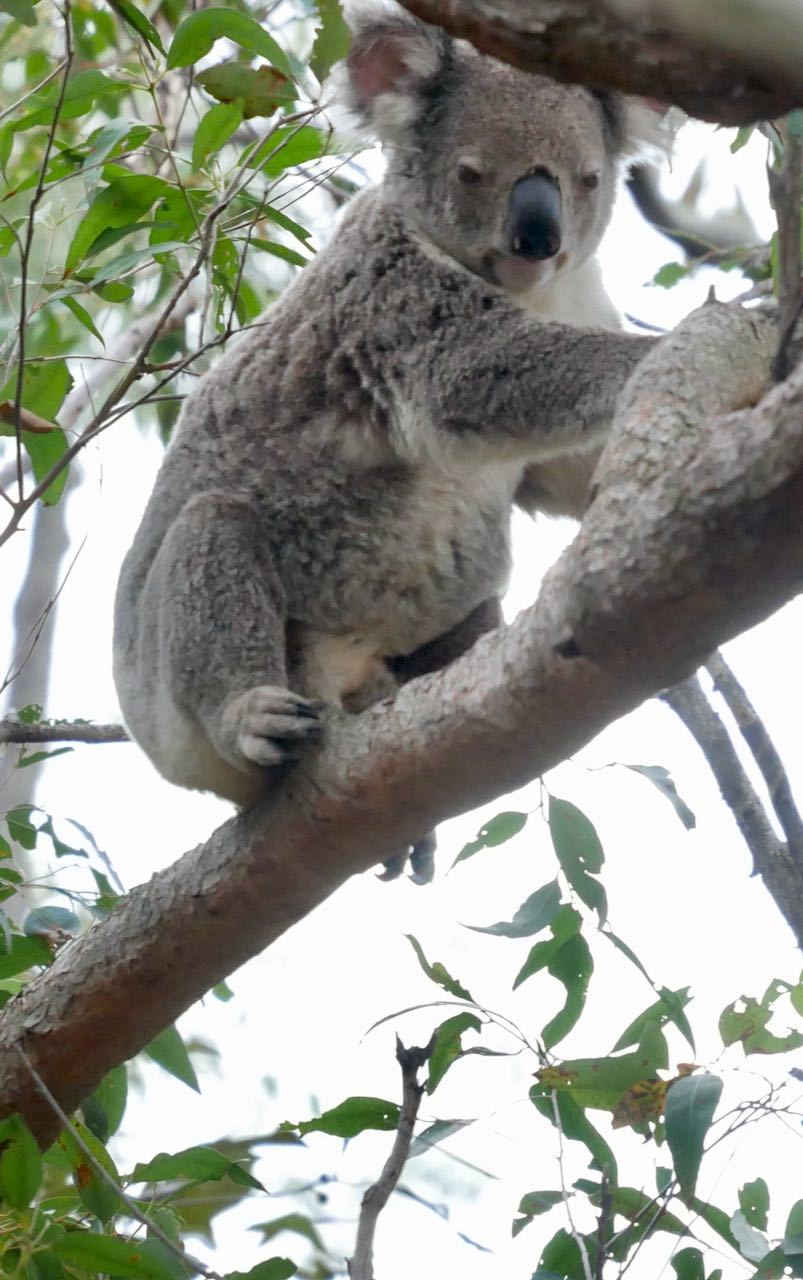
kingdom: Animalia
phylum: Chordata
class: Mammalia
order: Diprotodontia
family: Phascolarctidae
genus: Phascolarctos
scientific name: Phascolarctos cinereus
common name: Koala
